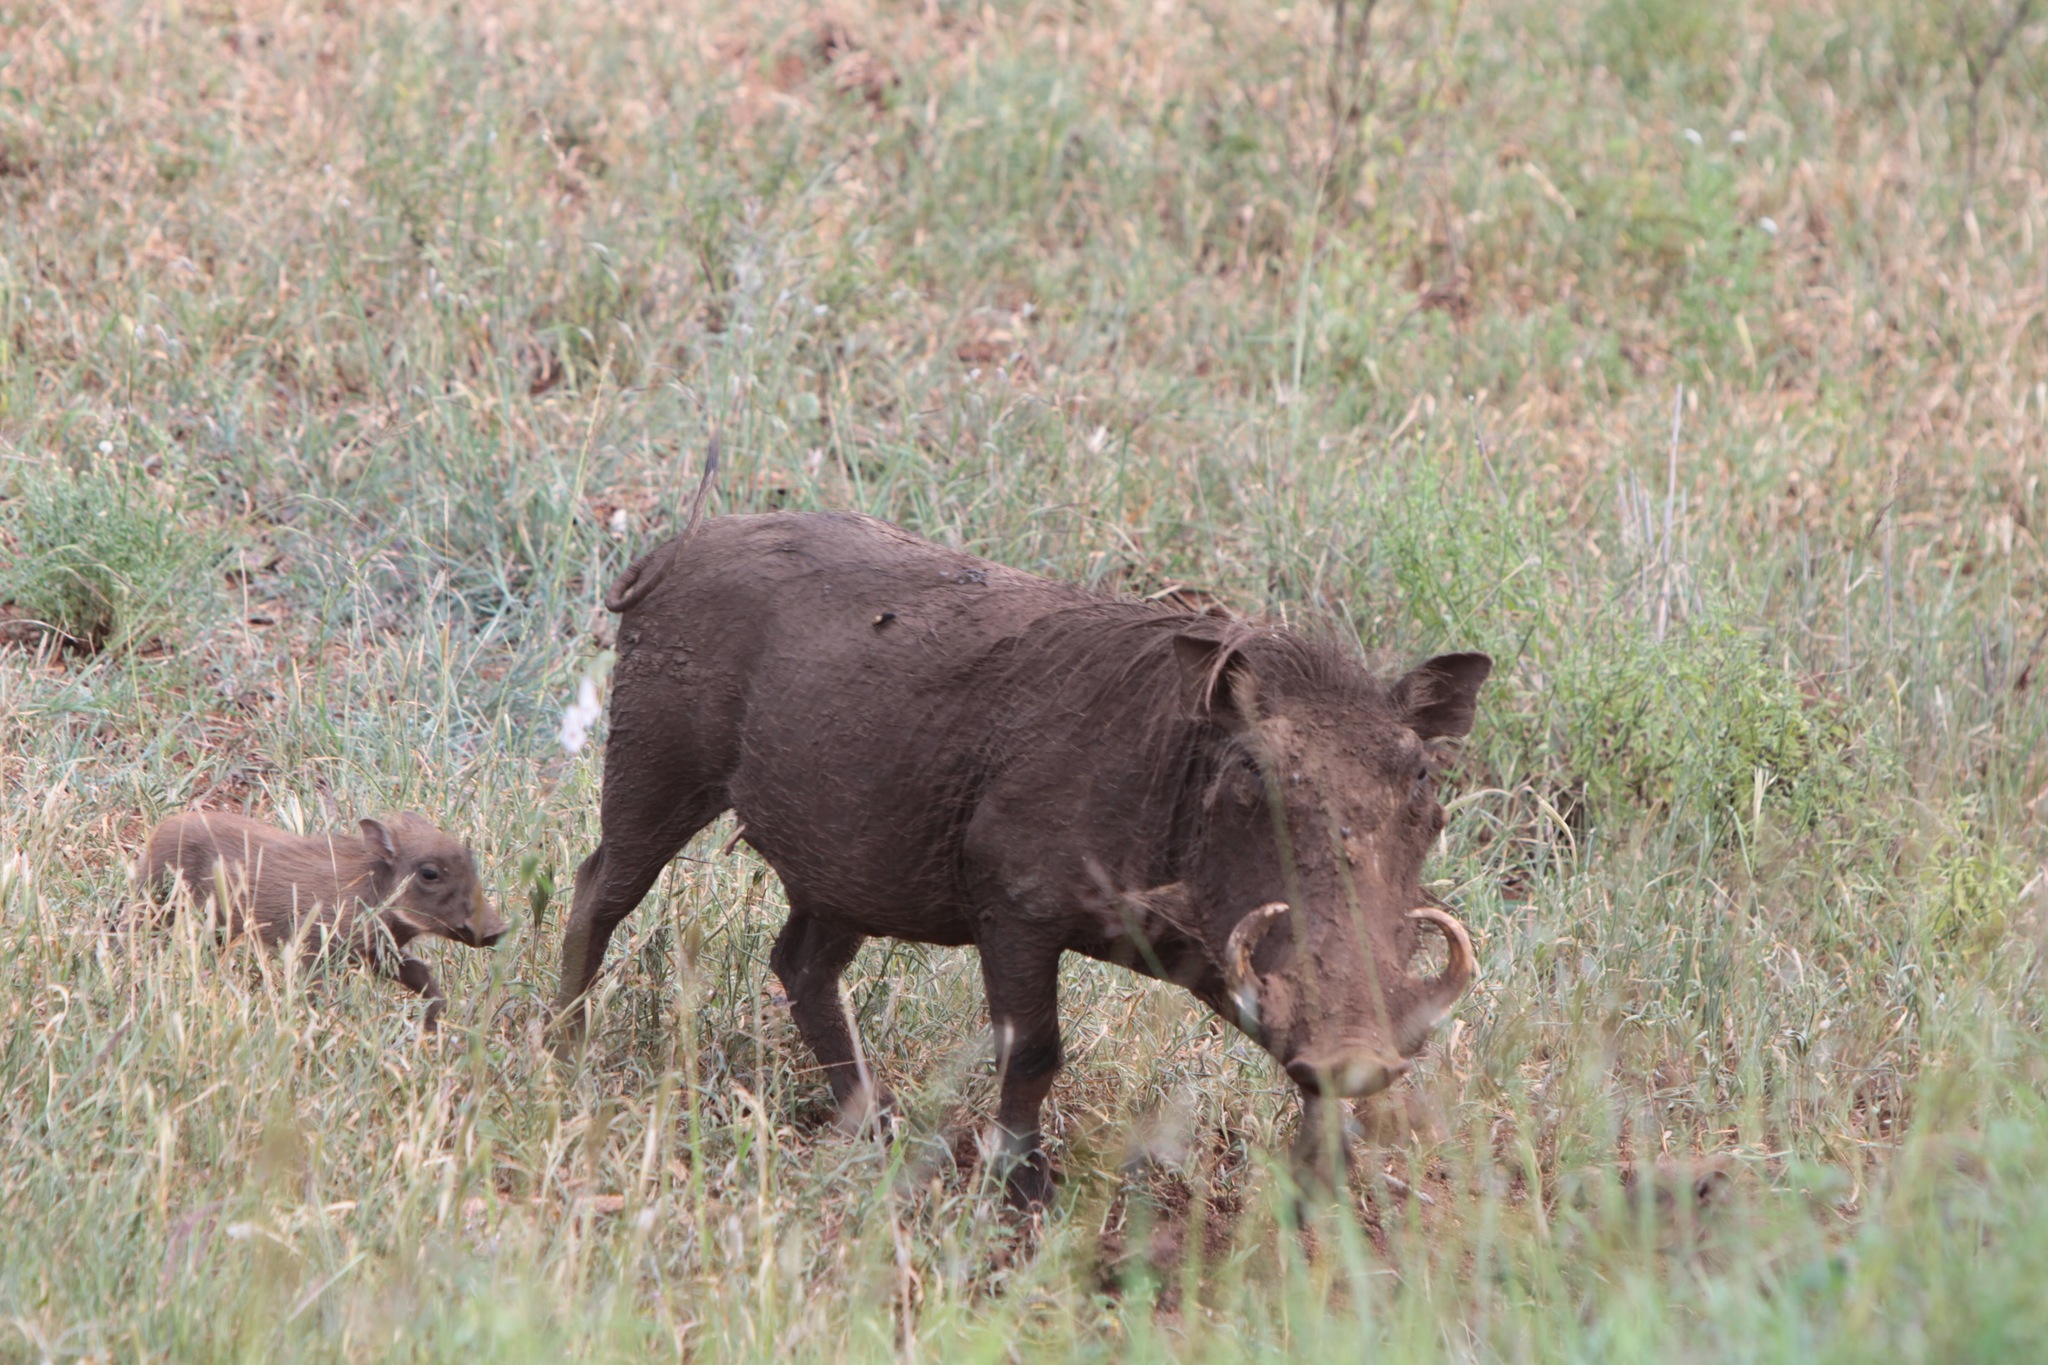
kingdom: Animalia
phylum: Chordata
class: Mammalia
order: Artiodactyla
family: Suidae
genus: Phacochoerus
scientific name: Phacochoerus africanus
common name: Common warthog
